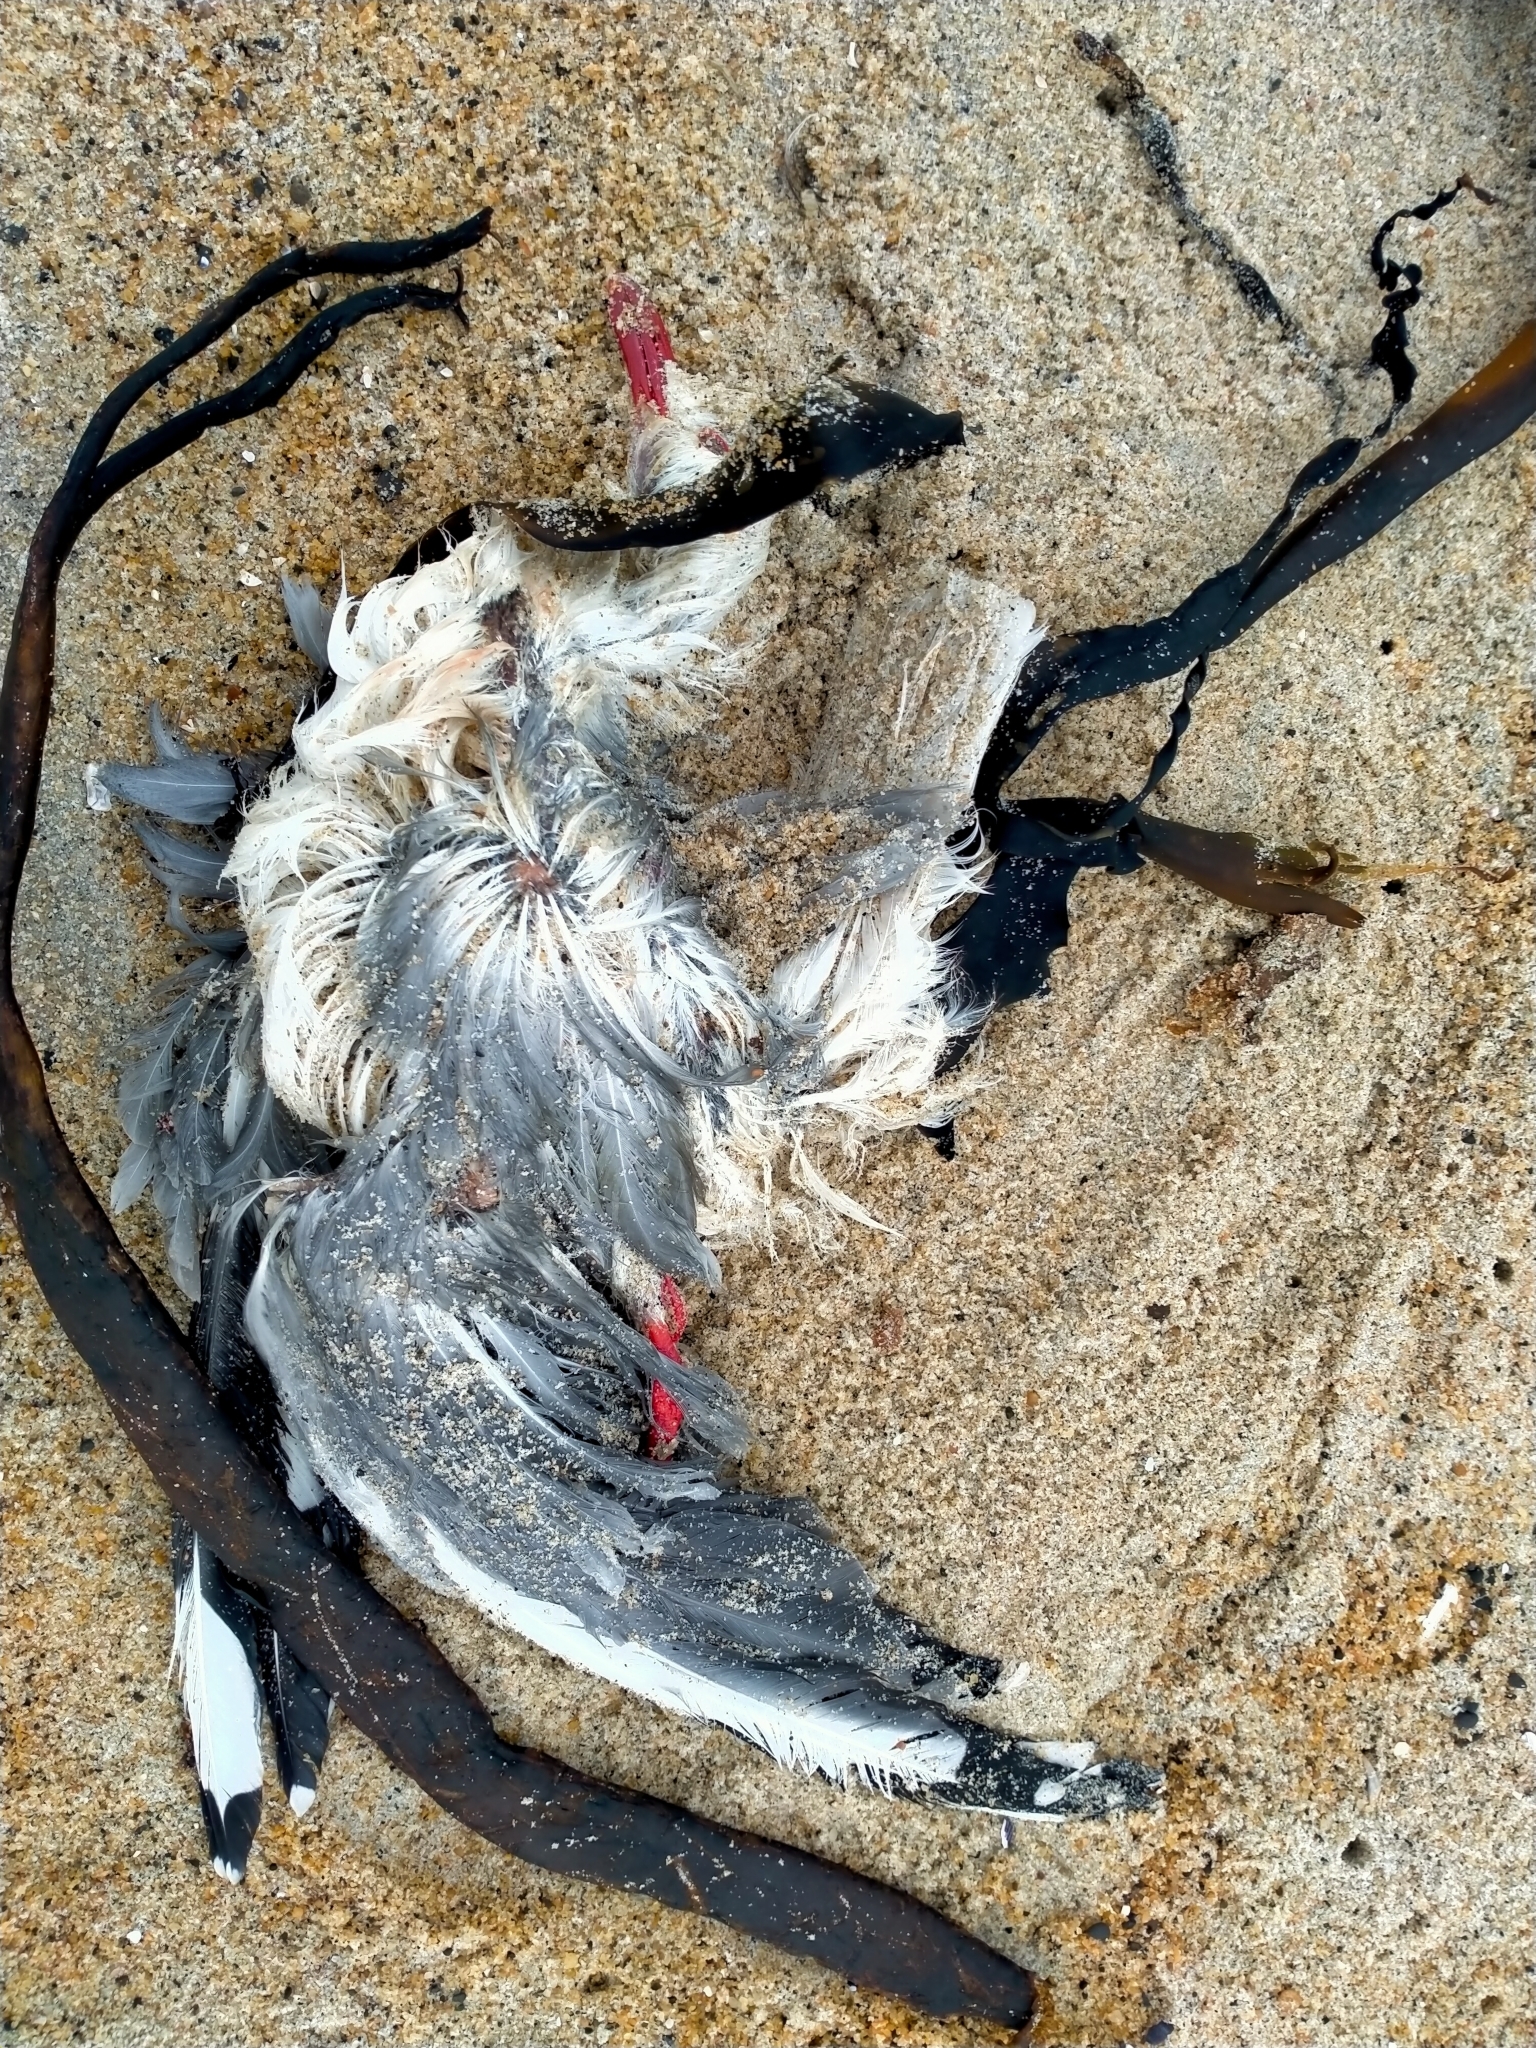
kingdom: Animalia
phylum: Chordata
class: Aves
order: Charadriiformes
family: Laridae
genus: Chroicocephalus
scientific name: Chroicocephalus novaehollandiae
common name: Silver gull
